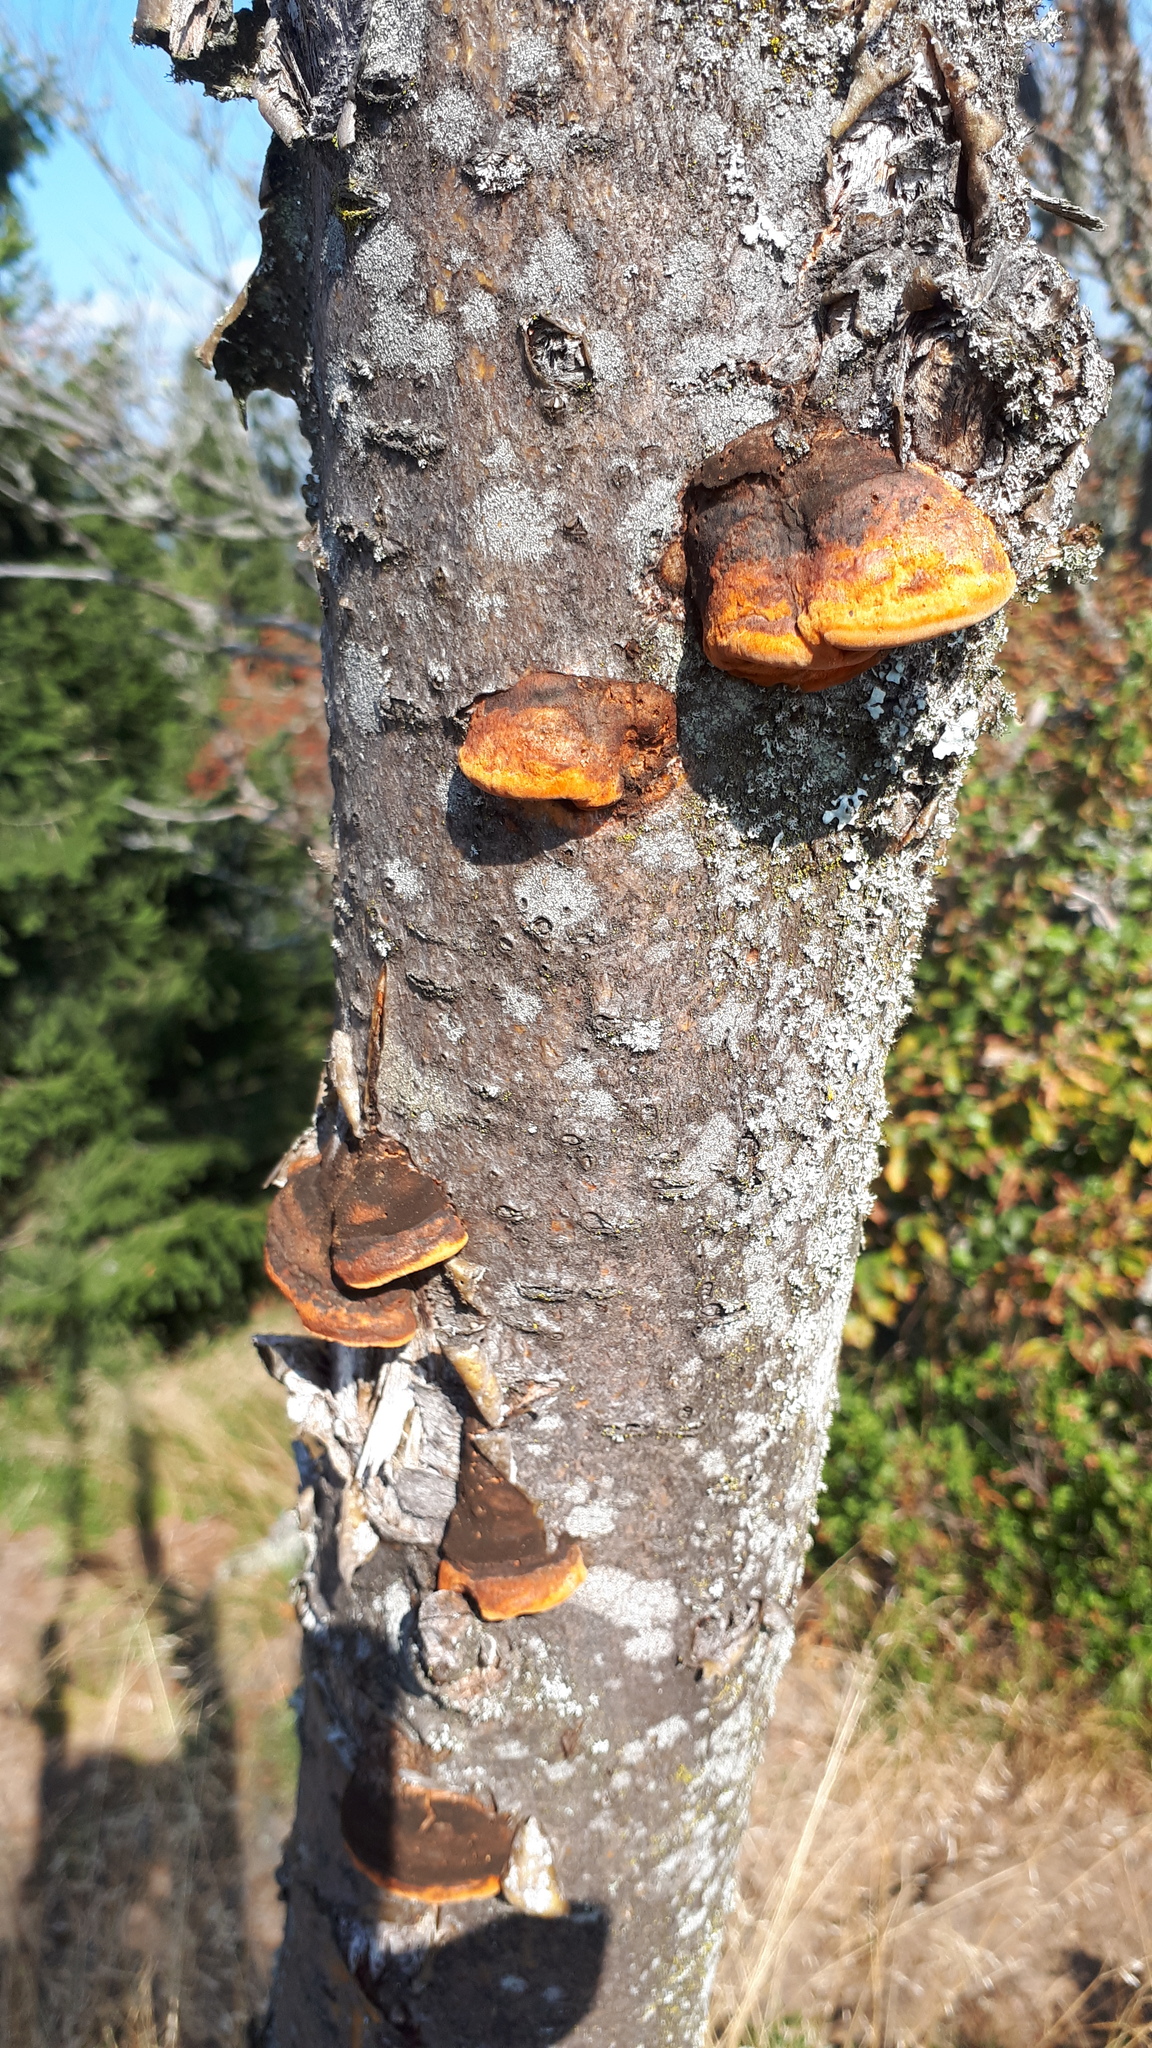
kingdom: Fungi
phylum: Basidiomycota
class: Agaricomycetes
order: Polyporales
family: Polyporaceae
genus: Trametes
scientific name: Trametes cinnabarina
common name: Northern cinnabar polypore
